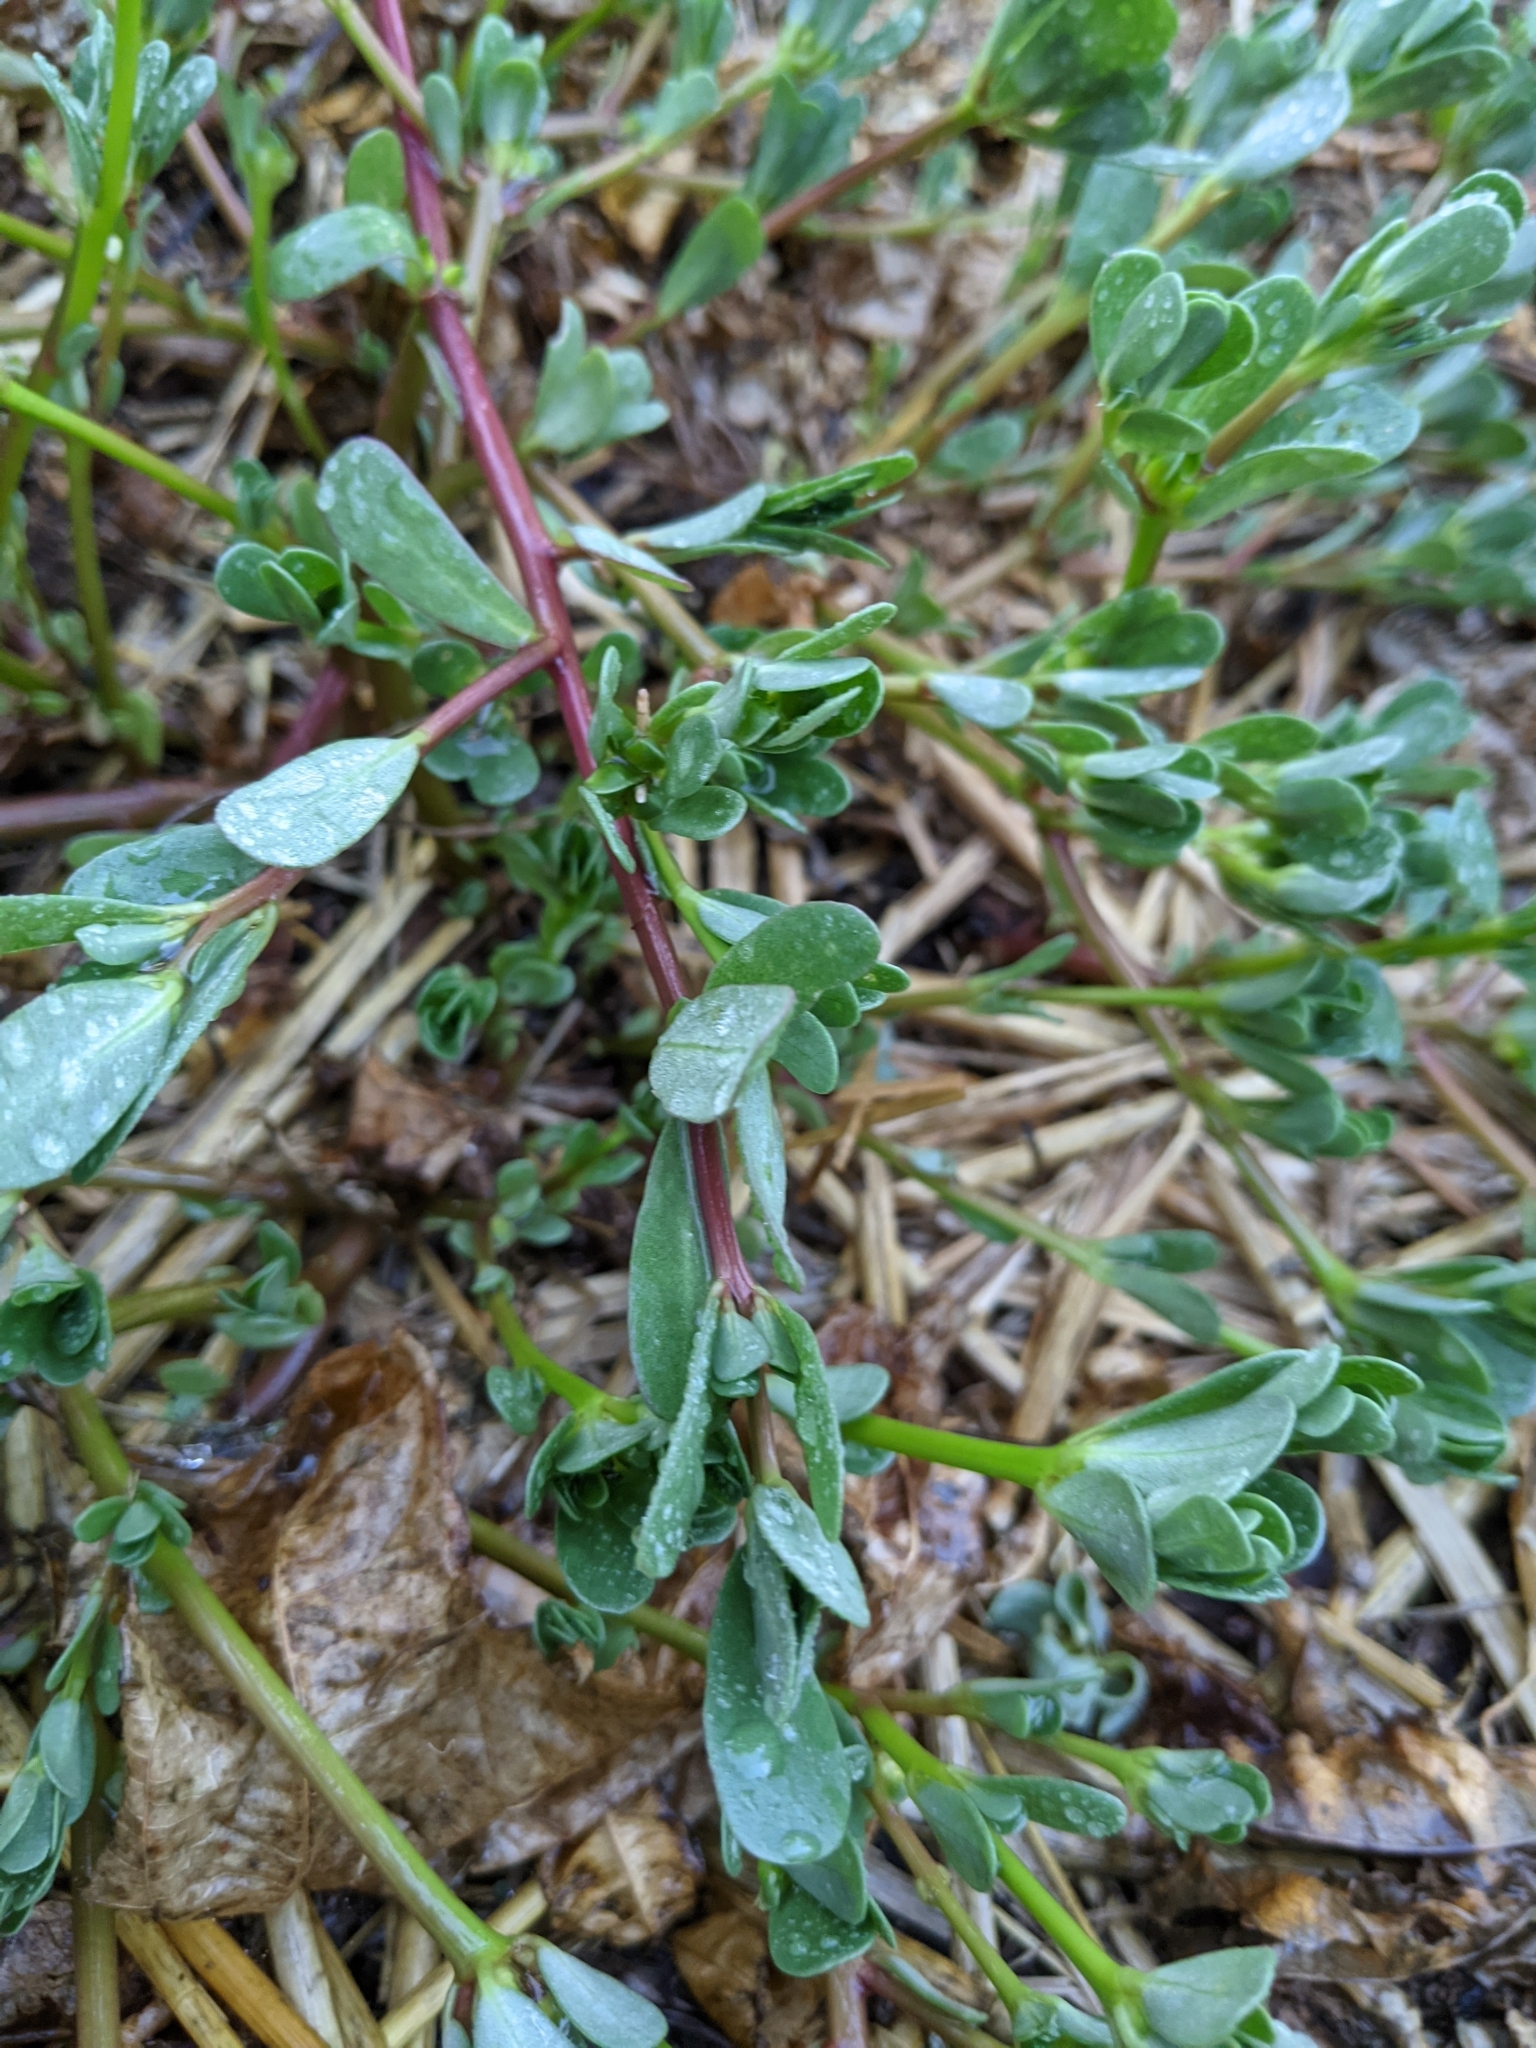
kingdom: Plantae
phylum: Tracheophyta
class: Magnoliopsida
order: Caryophyllales
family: Portulacaceae
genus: Portulaca
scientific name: Portulaca oleracea
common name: Common purslane
